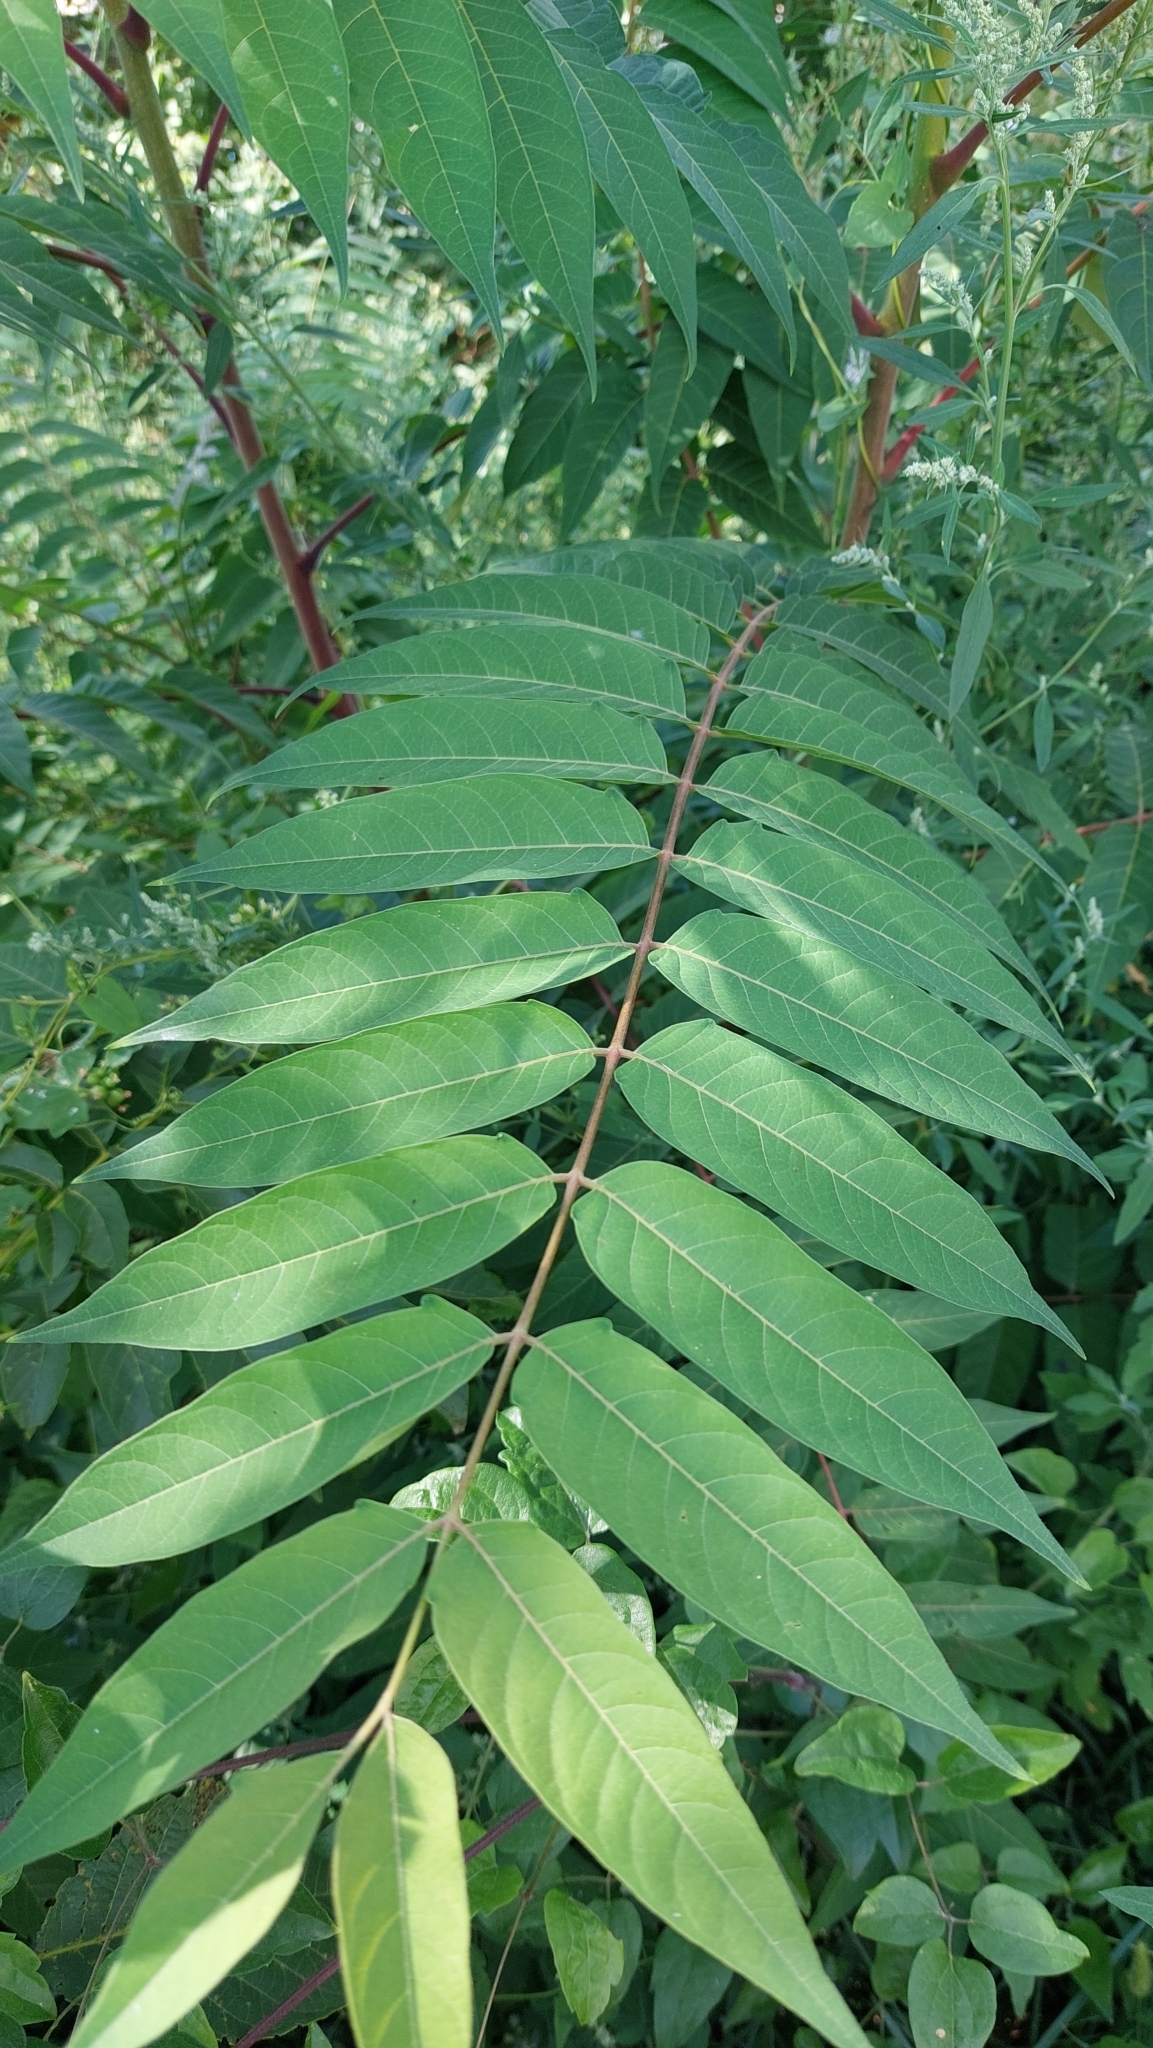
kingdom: Plantae
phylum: Tracheophyta
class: Magnoliopsida
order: Sapindales
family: Simaroubaceae
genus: Ailanthus
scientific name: Ailanthus altissima
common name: Tree-of-heaven
